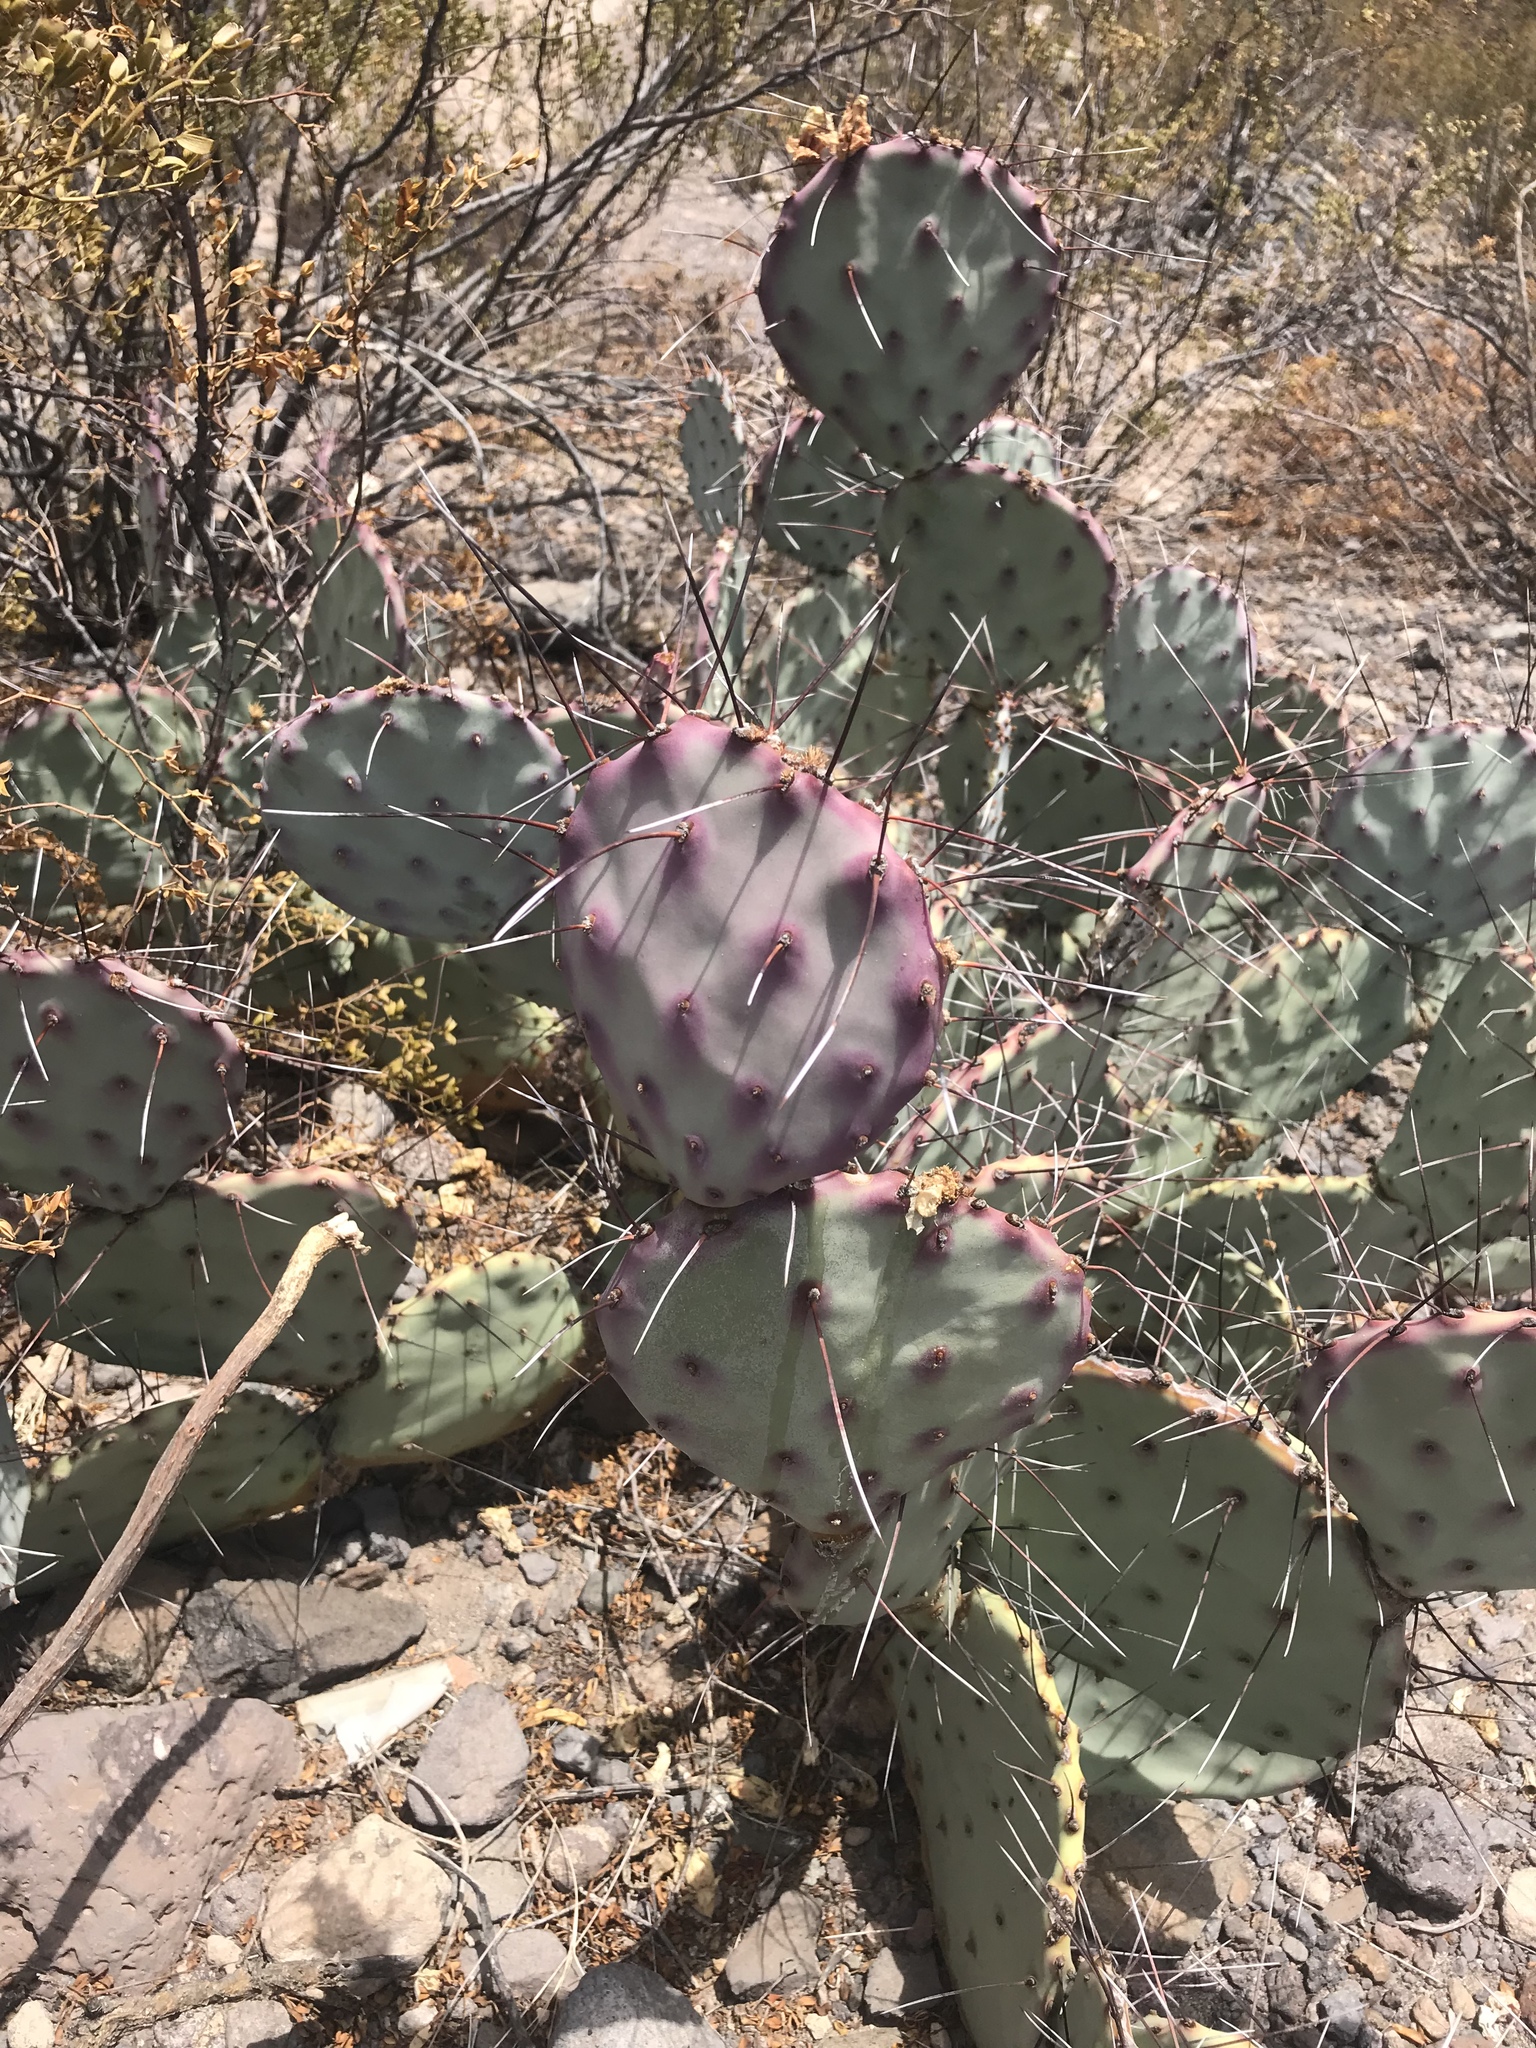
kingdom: Plantae
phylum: Tracheophyta
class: Magnoliopsida
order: Caryophyllales
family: Cactaceae
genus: Opuntia
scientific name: Opuntia phaeacantha
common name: New mexico prickly-pear
